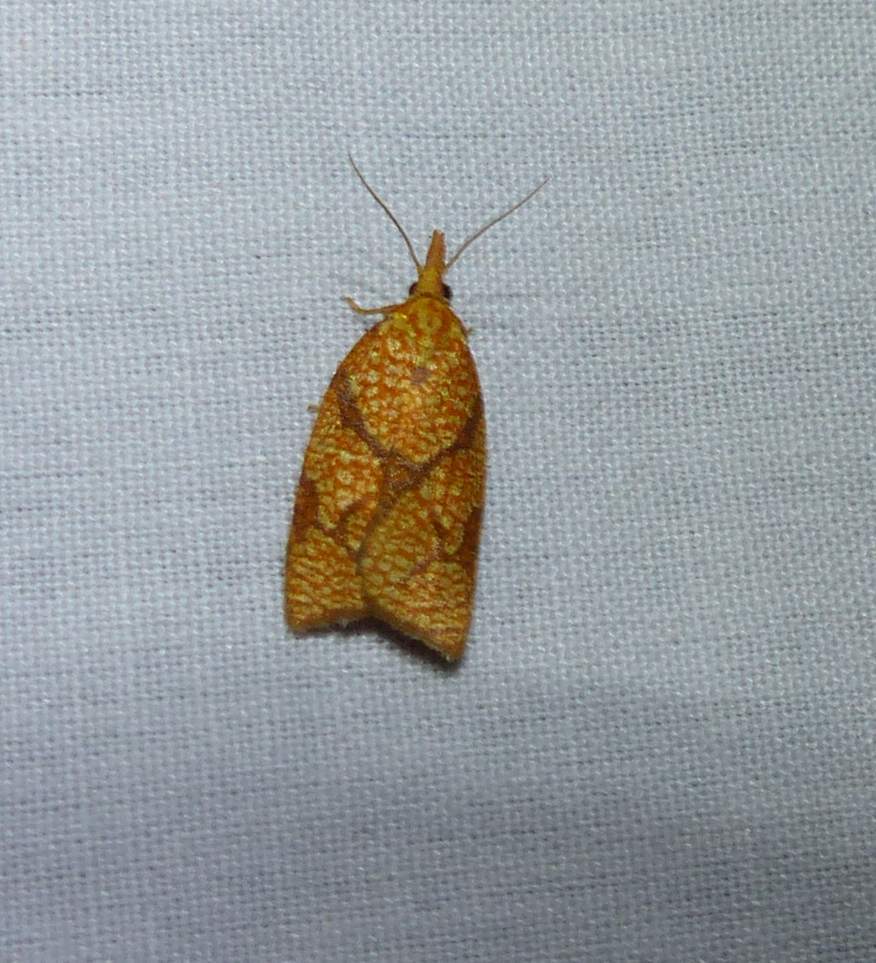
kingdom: Animalia
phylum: Arthropoda
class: Insecta
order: Lepidoptera
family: Tortricidae
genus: Cenopis
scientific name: Cenopis reticulatana
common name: Reticulated fruitworm moth
